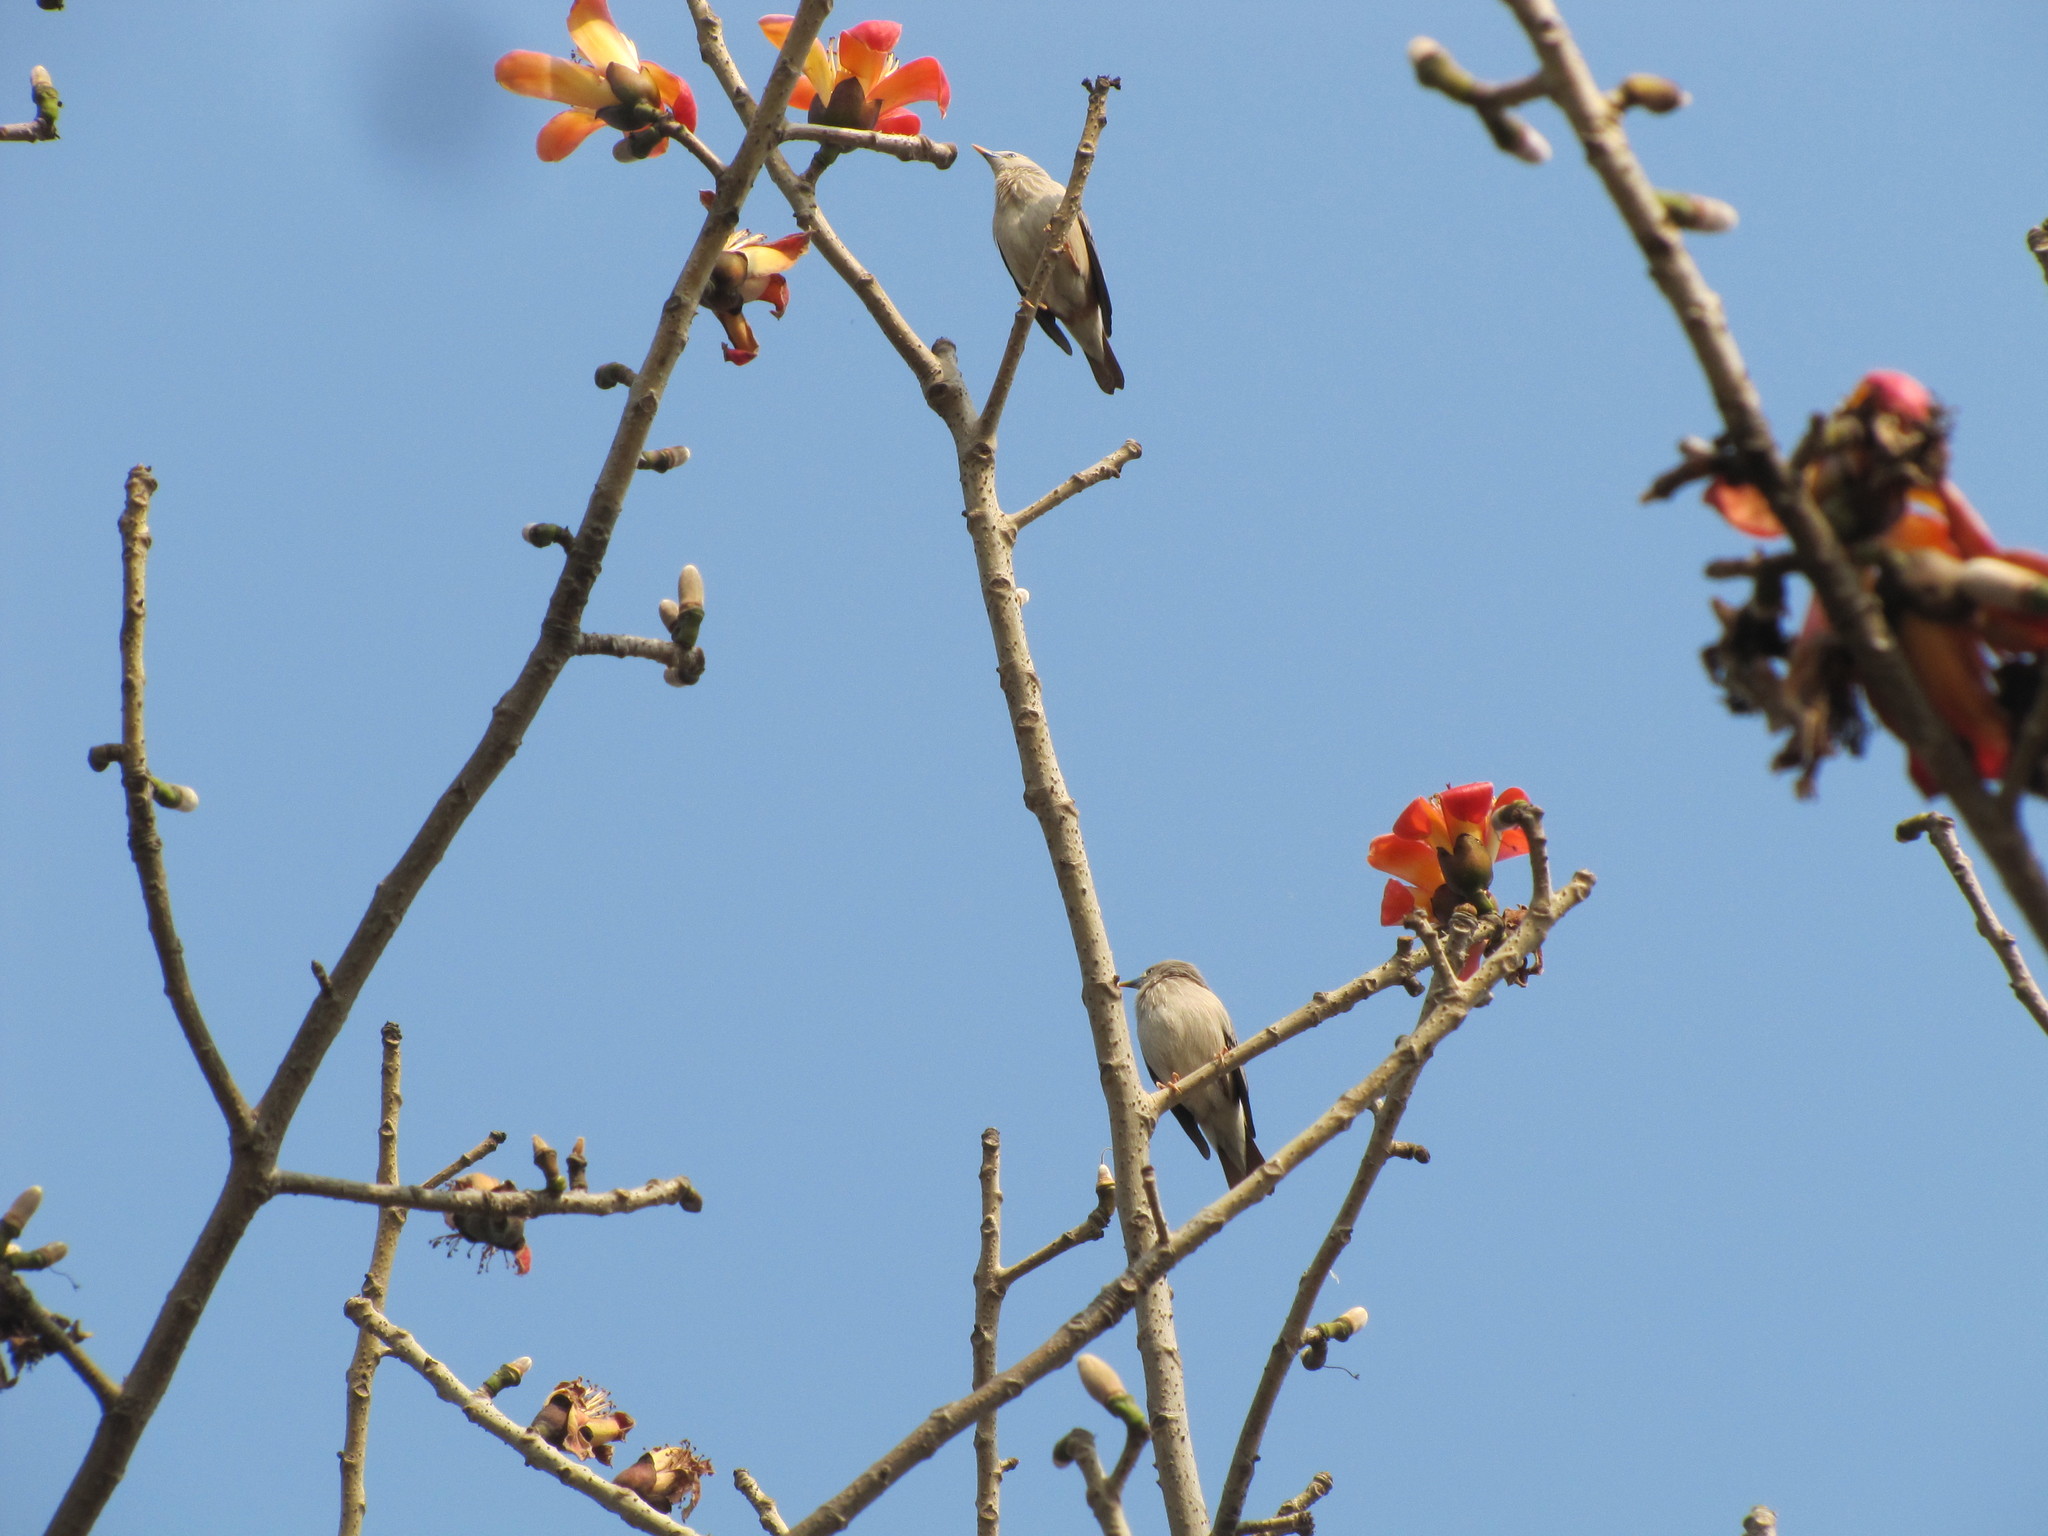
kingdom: Animalia
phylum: Chordata
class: Aves
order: Passeriformes
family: Sturnidae
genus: Sturnia
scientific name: Sturnia malabarica
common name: Chestnut-tailed starling
